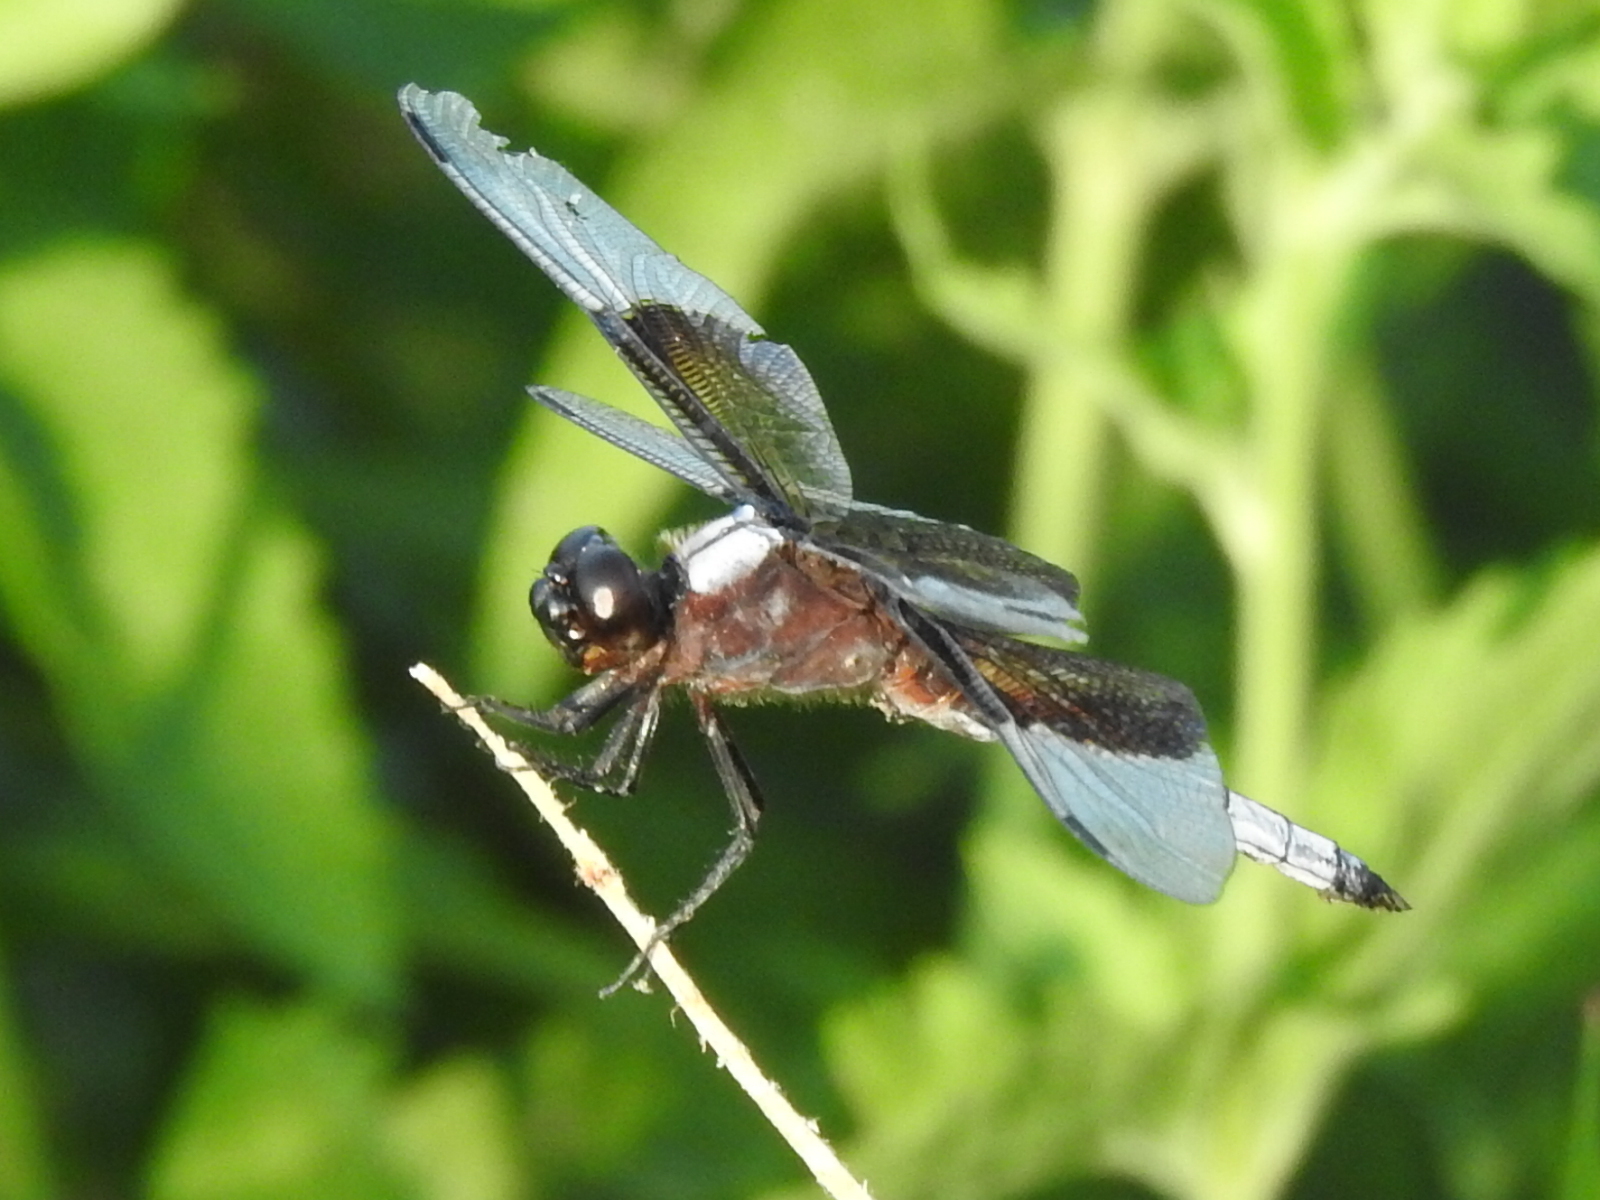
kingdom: Animalia
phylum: Arthropoda
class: Insecta
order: Odonata
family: Libellulidae
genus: Libellula
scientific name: Libellula luctuosa
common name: Widow skimmer
